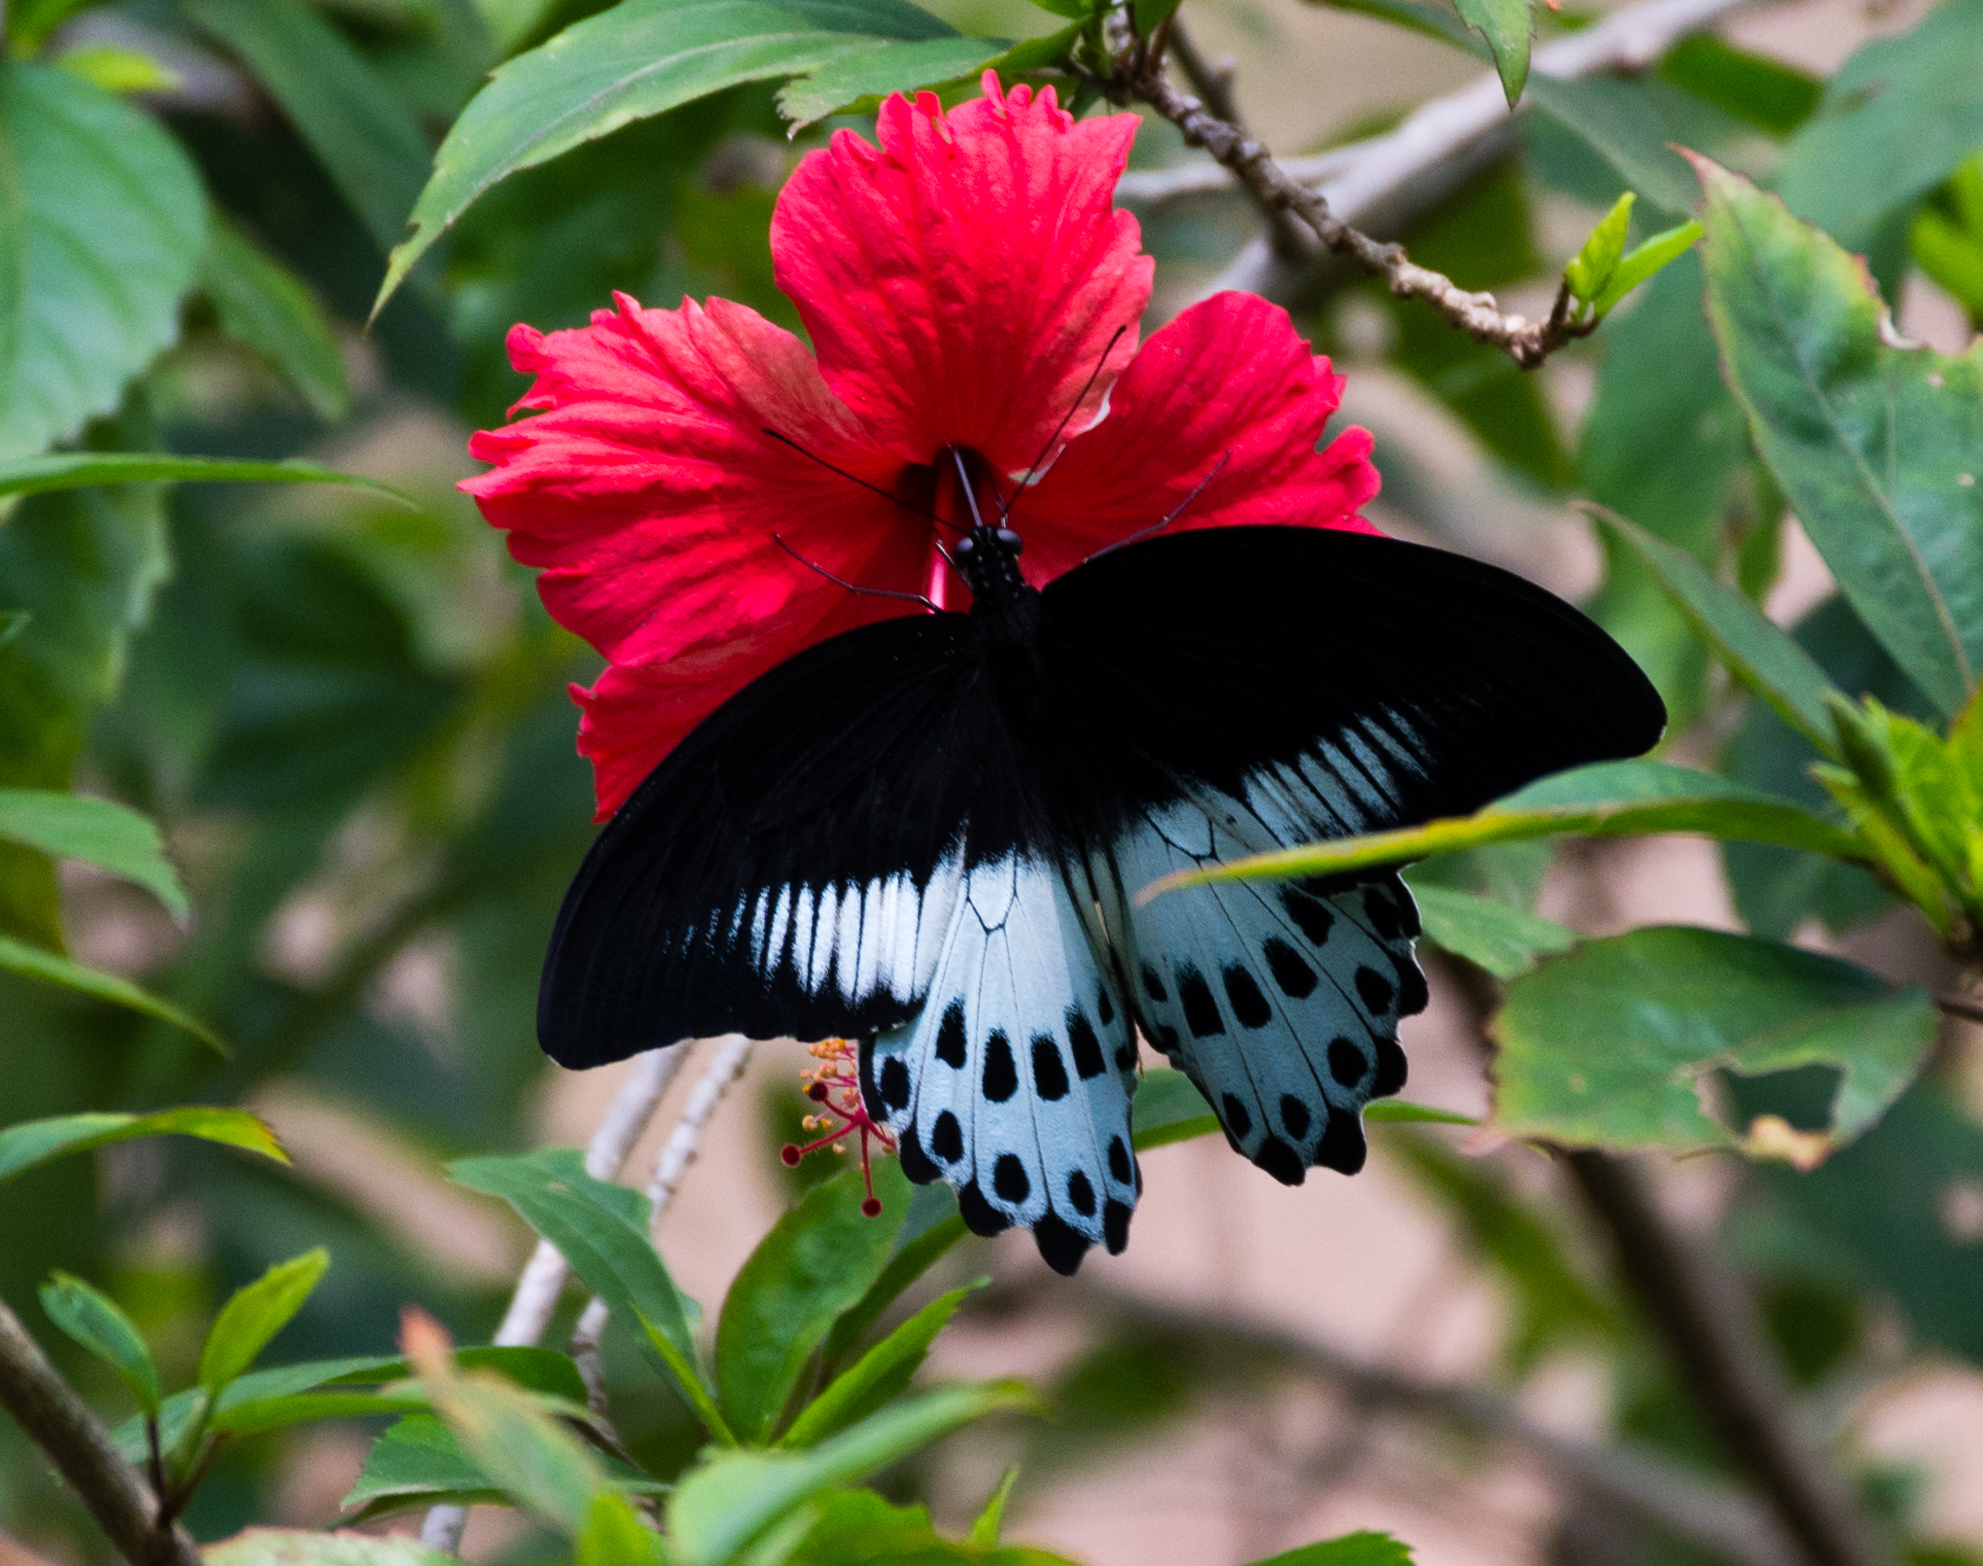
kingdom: Animalia
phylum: Arthropoda
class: Insecta
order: Lepidoptera
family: Papilionidae
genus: Papilio
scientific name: Papilio memnon
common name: Great mormon
